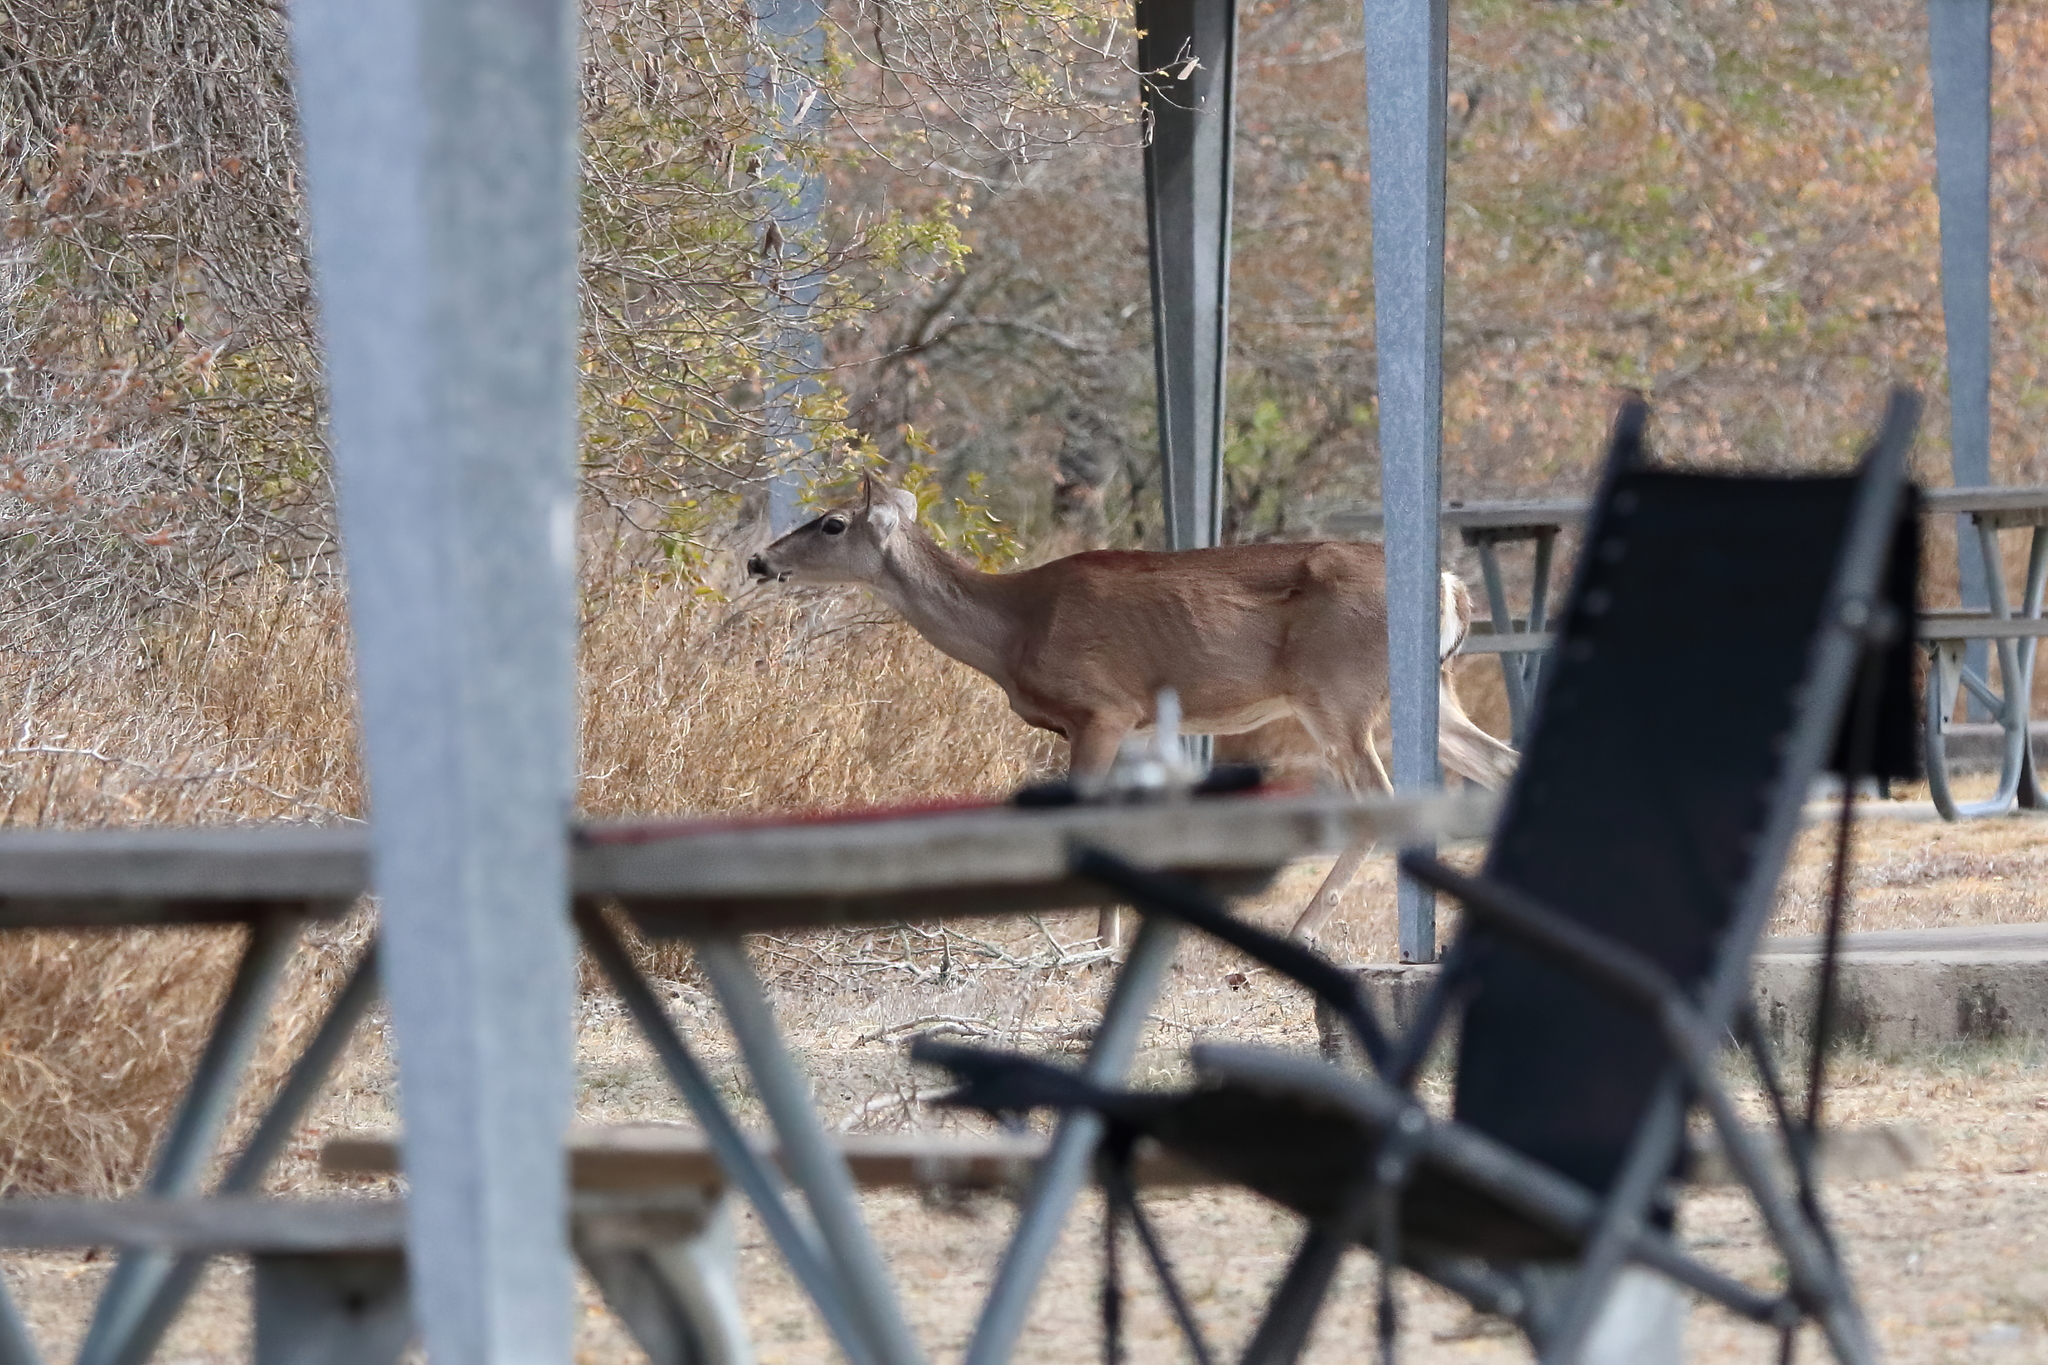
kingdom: Animalia
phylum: Chordata
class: Mammalia
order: Artiodactyla
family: Cervidae
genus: Odocoileus
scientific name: Odocoileus virginianus
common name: White-tailed deer
